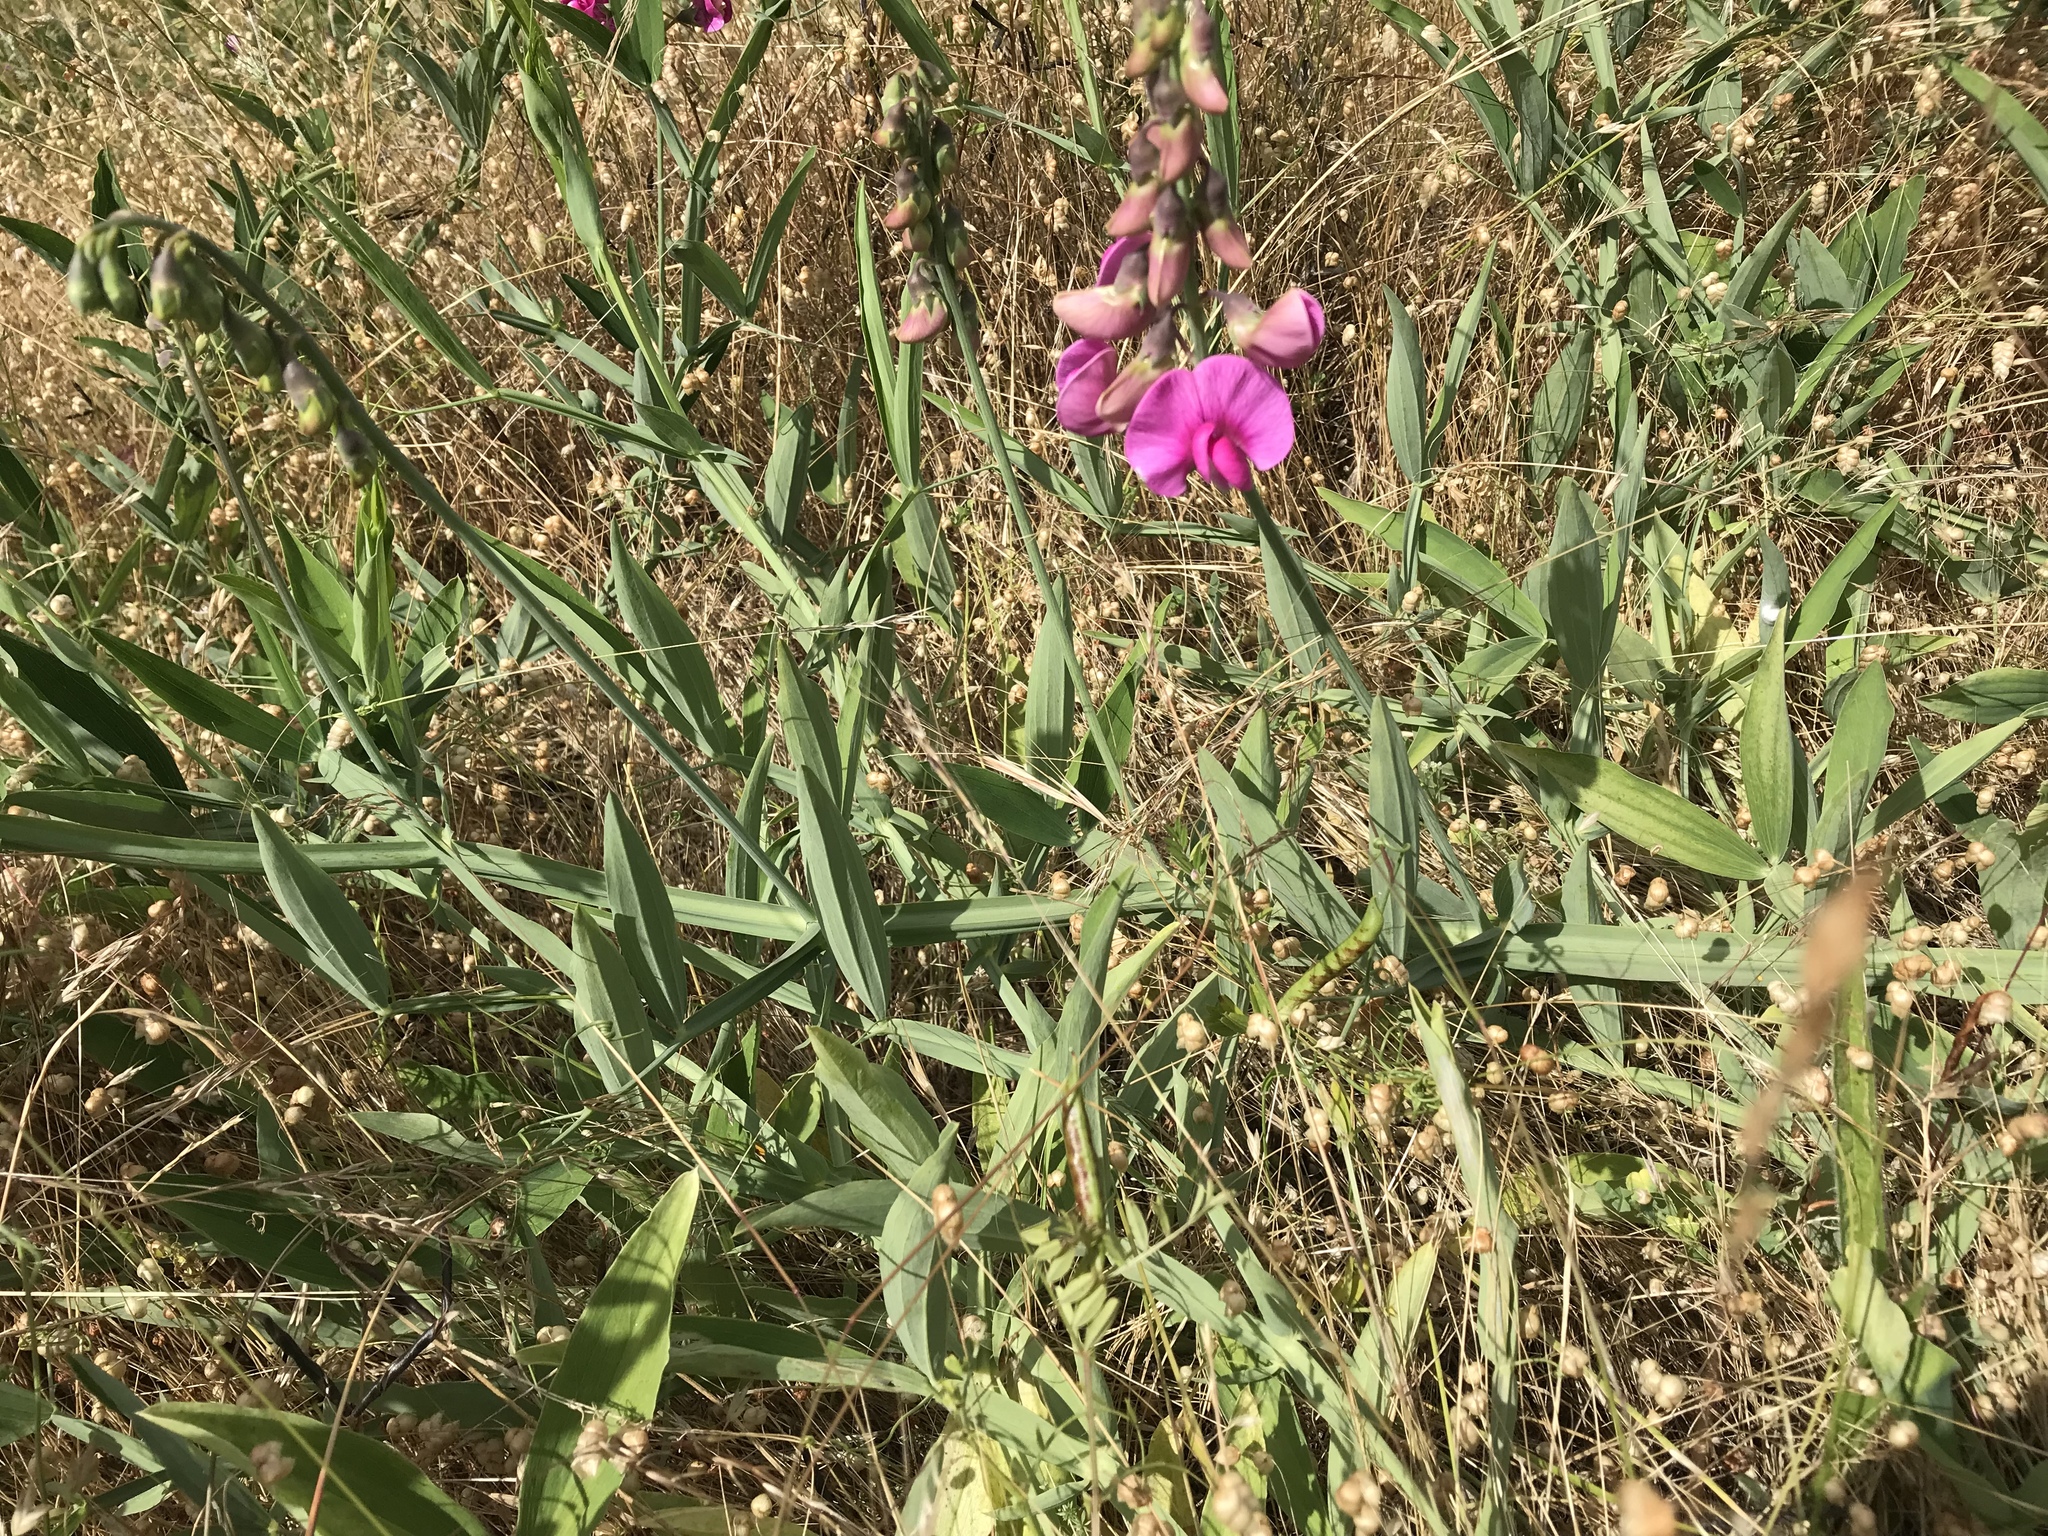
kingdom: Plantae
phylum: Tracheophyta
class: Magnoliopsida
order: Fabales
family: Fabaceae
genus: Lathyrus
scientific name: Lathyrus latifolius
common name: Perennial pea
